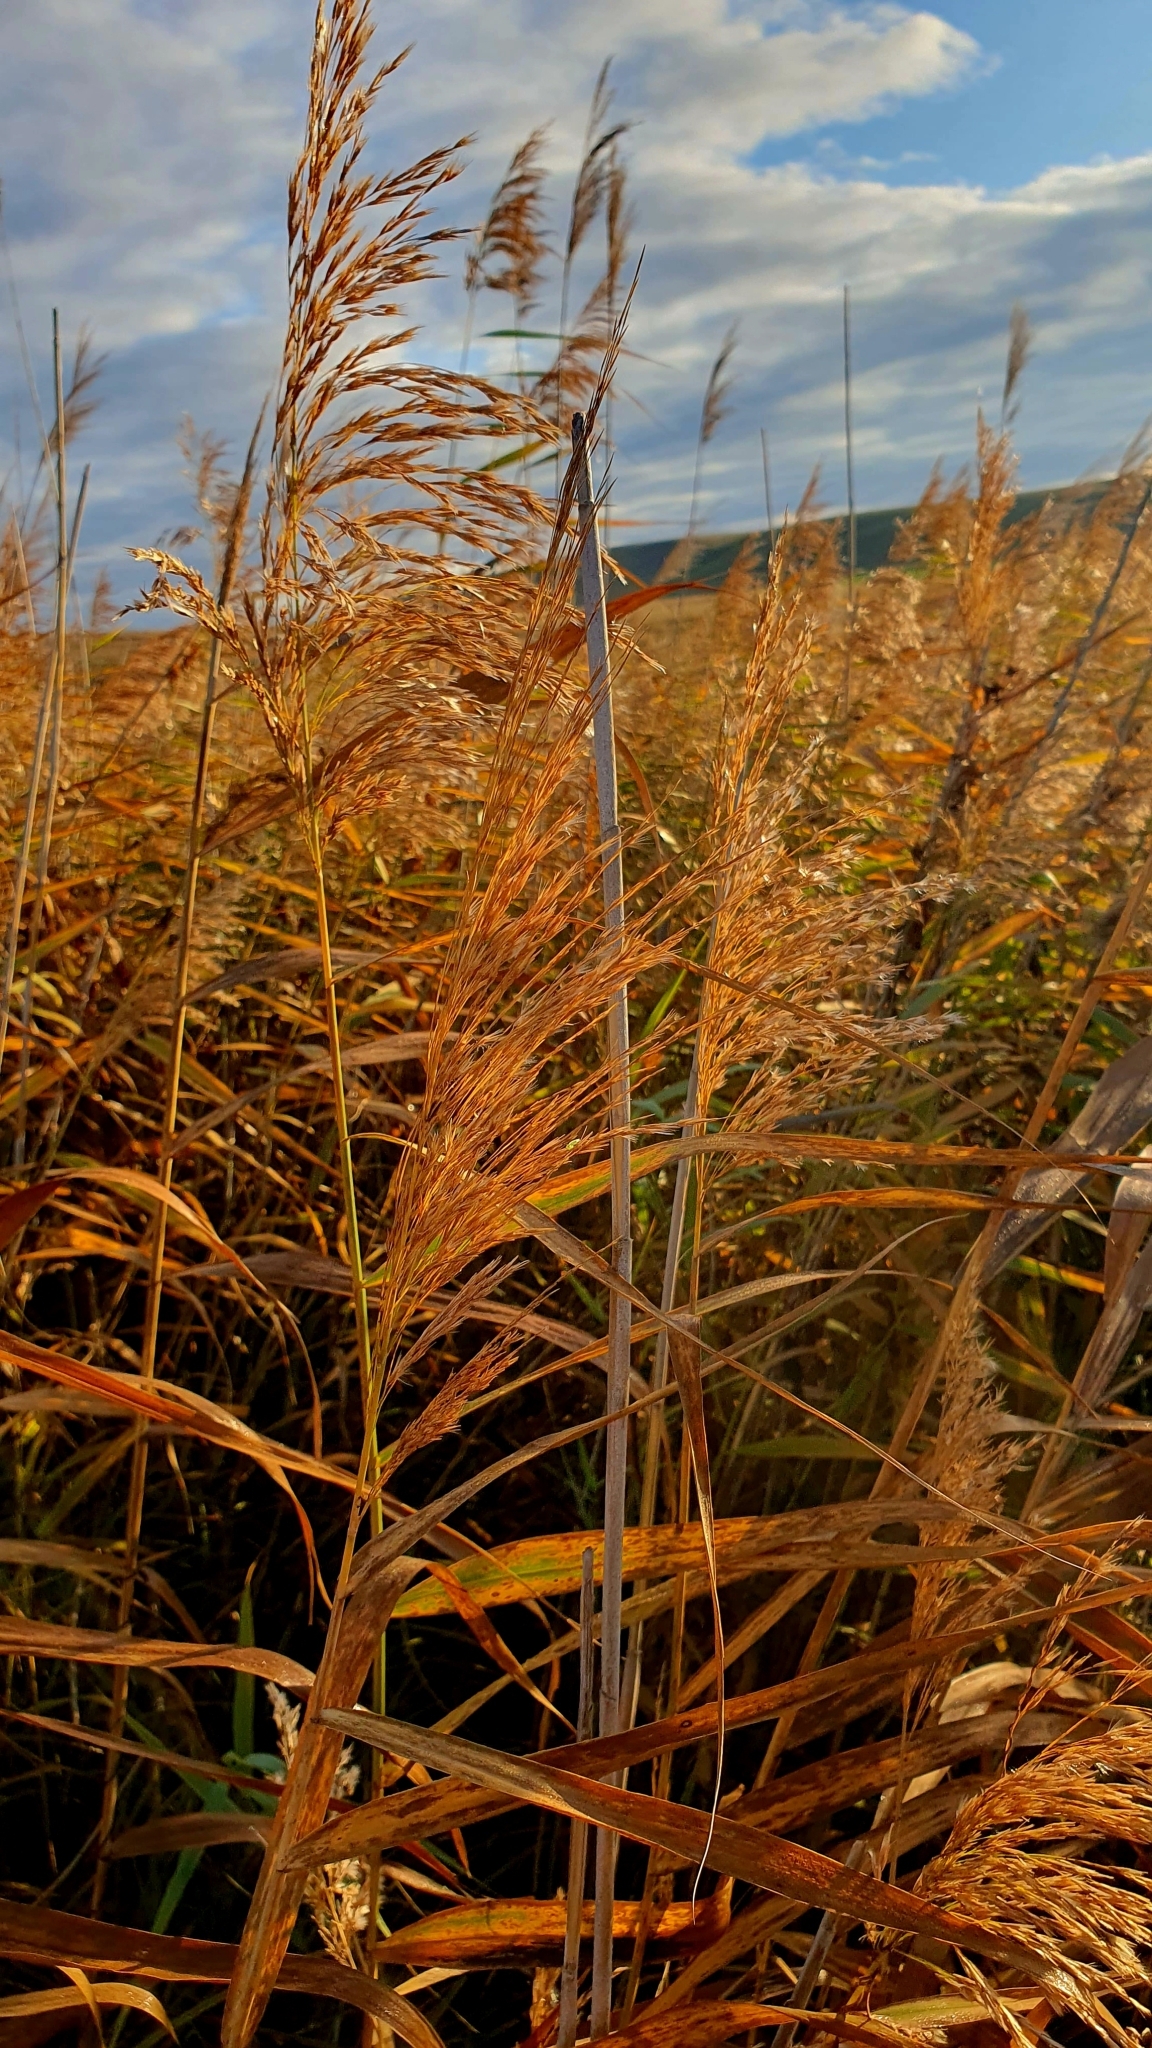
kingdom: Plantae
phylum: Tracheophyta
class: Liliopsida
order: Poales
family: Poaceae
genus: Phragmites
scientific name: Phragmites australis
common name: Common reed
